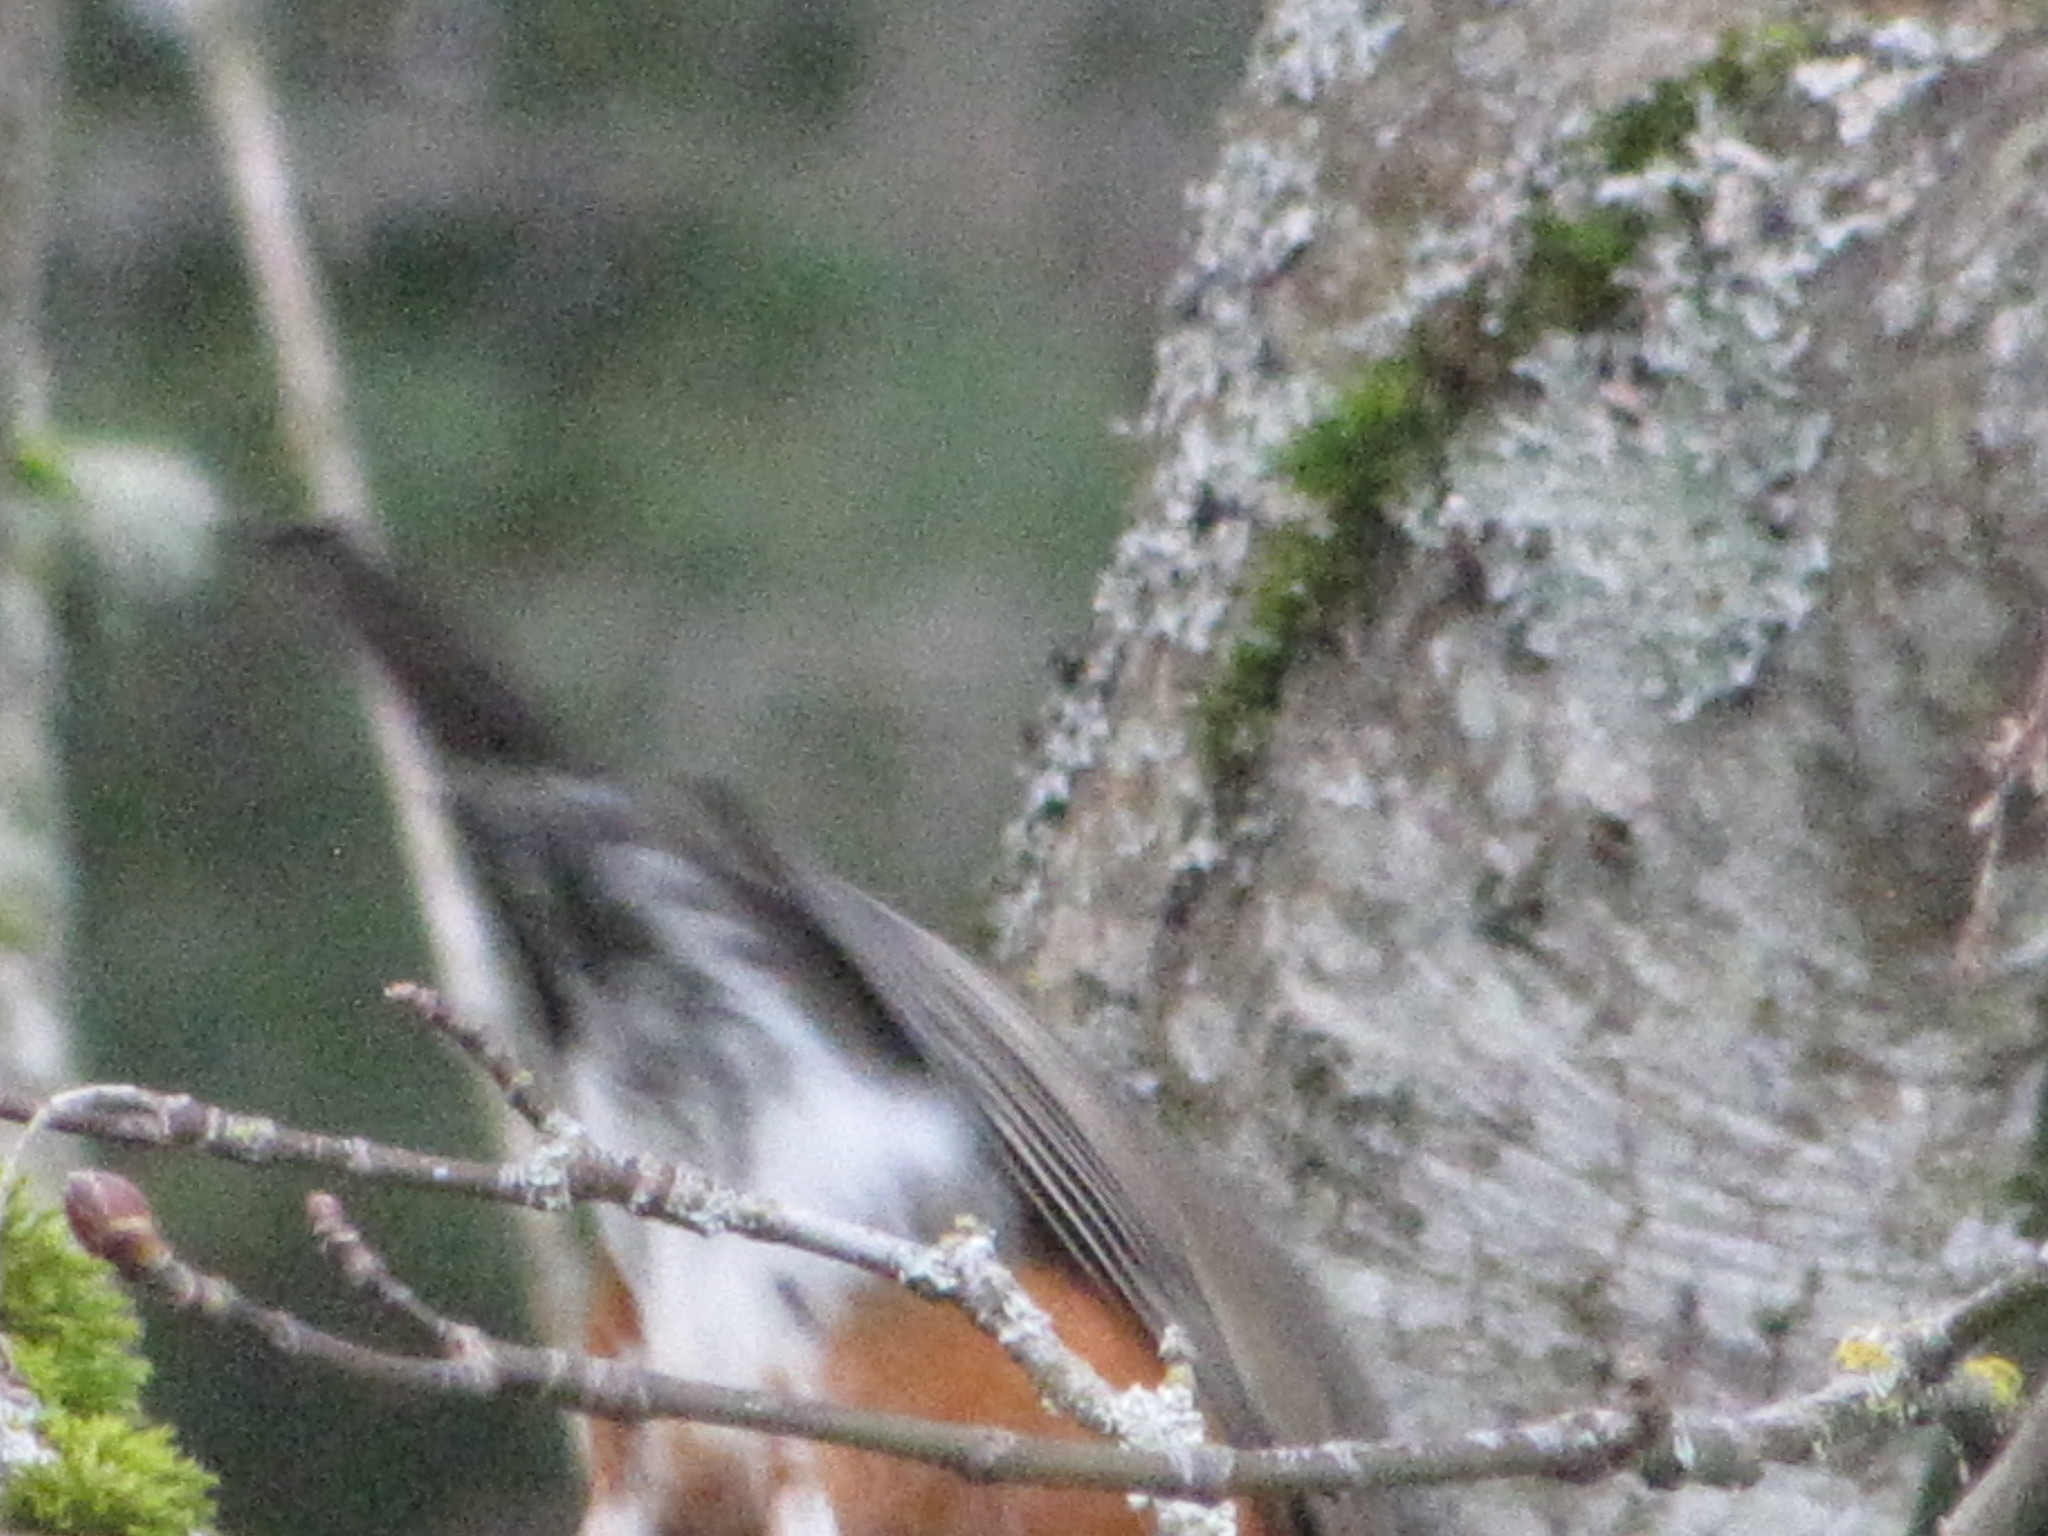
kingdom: Animalia
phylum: Chordata
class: Aves
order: Passeriformes
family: Turdidae
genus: Turdus
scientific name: Turdus migratorius
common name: American robin
